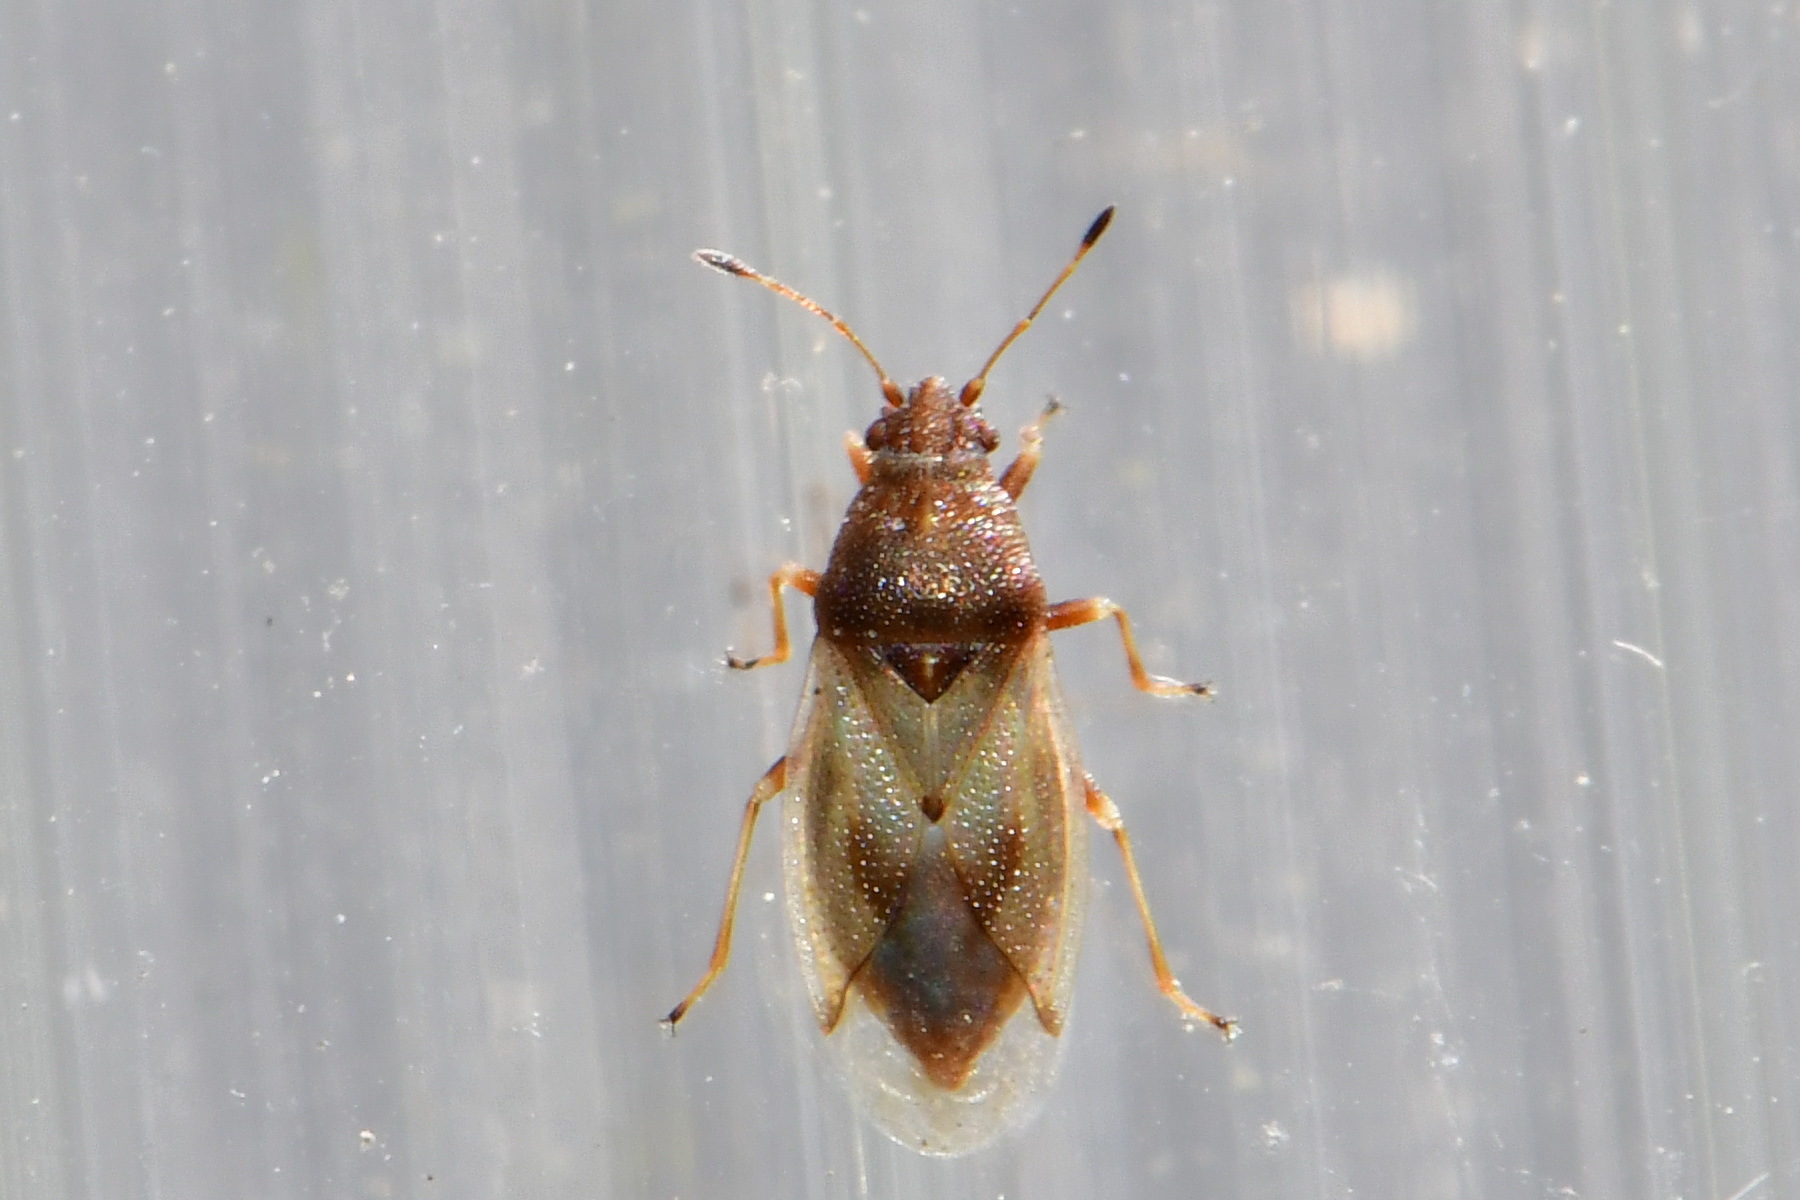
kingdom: Animalia
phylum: Arthropoda
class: Insecta
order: Hemiptera
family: Cymidae
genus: Cymus
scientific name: Cymus aurescens
